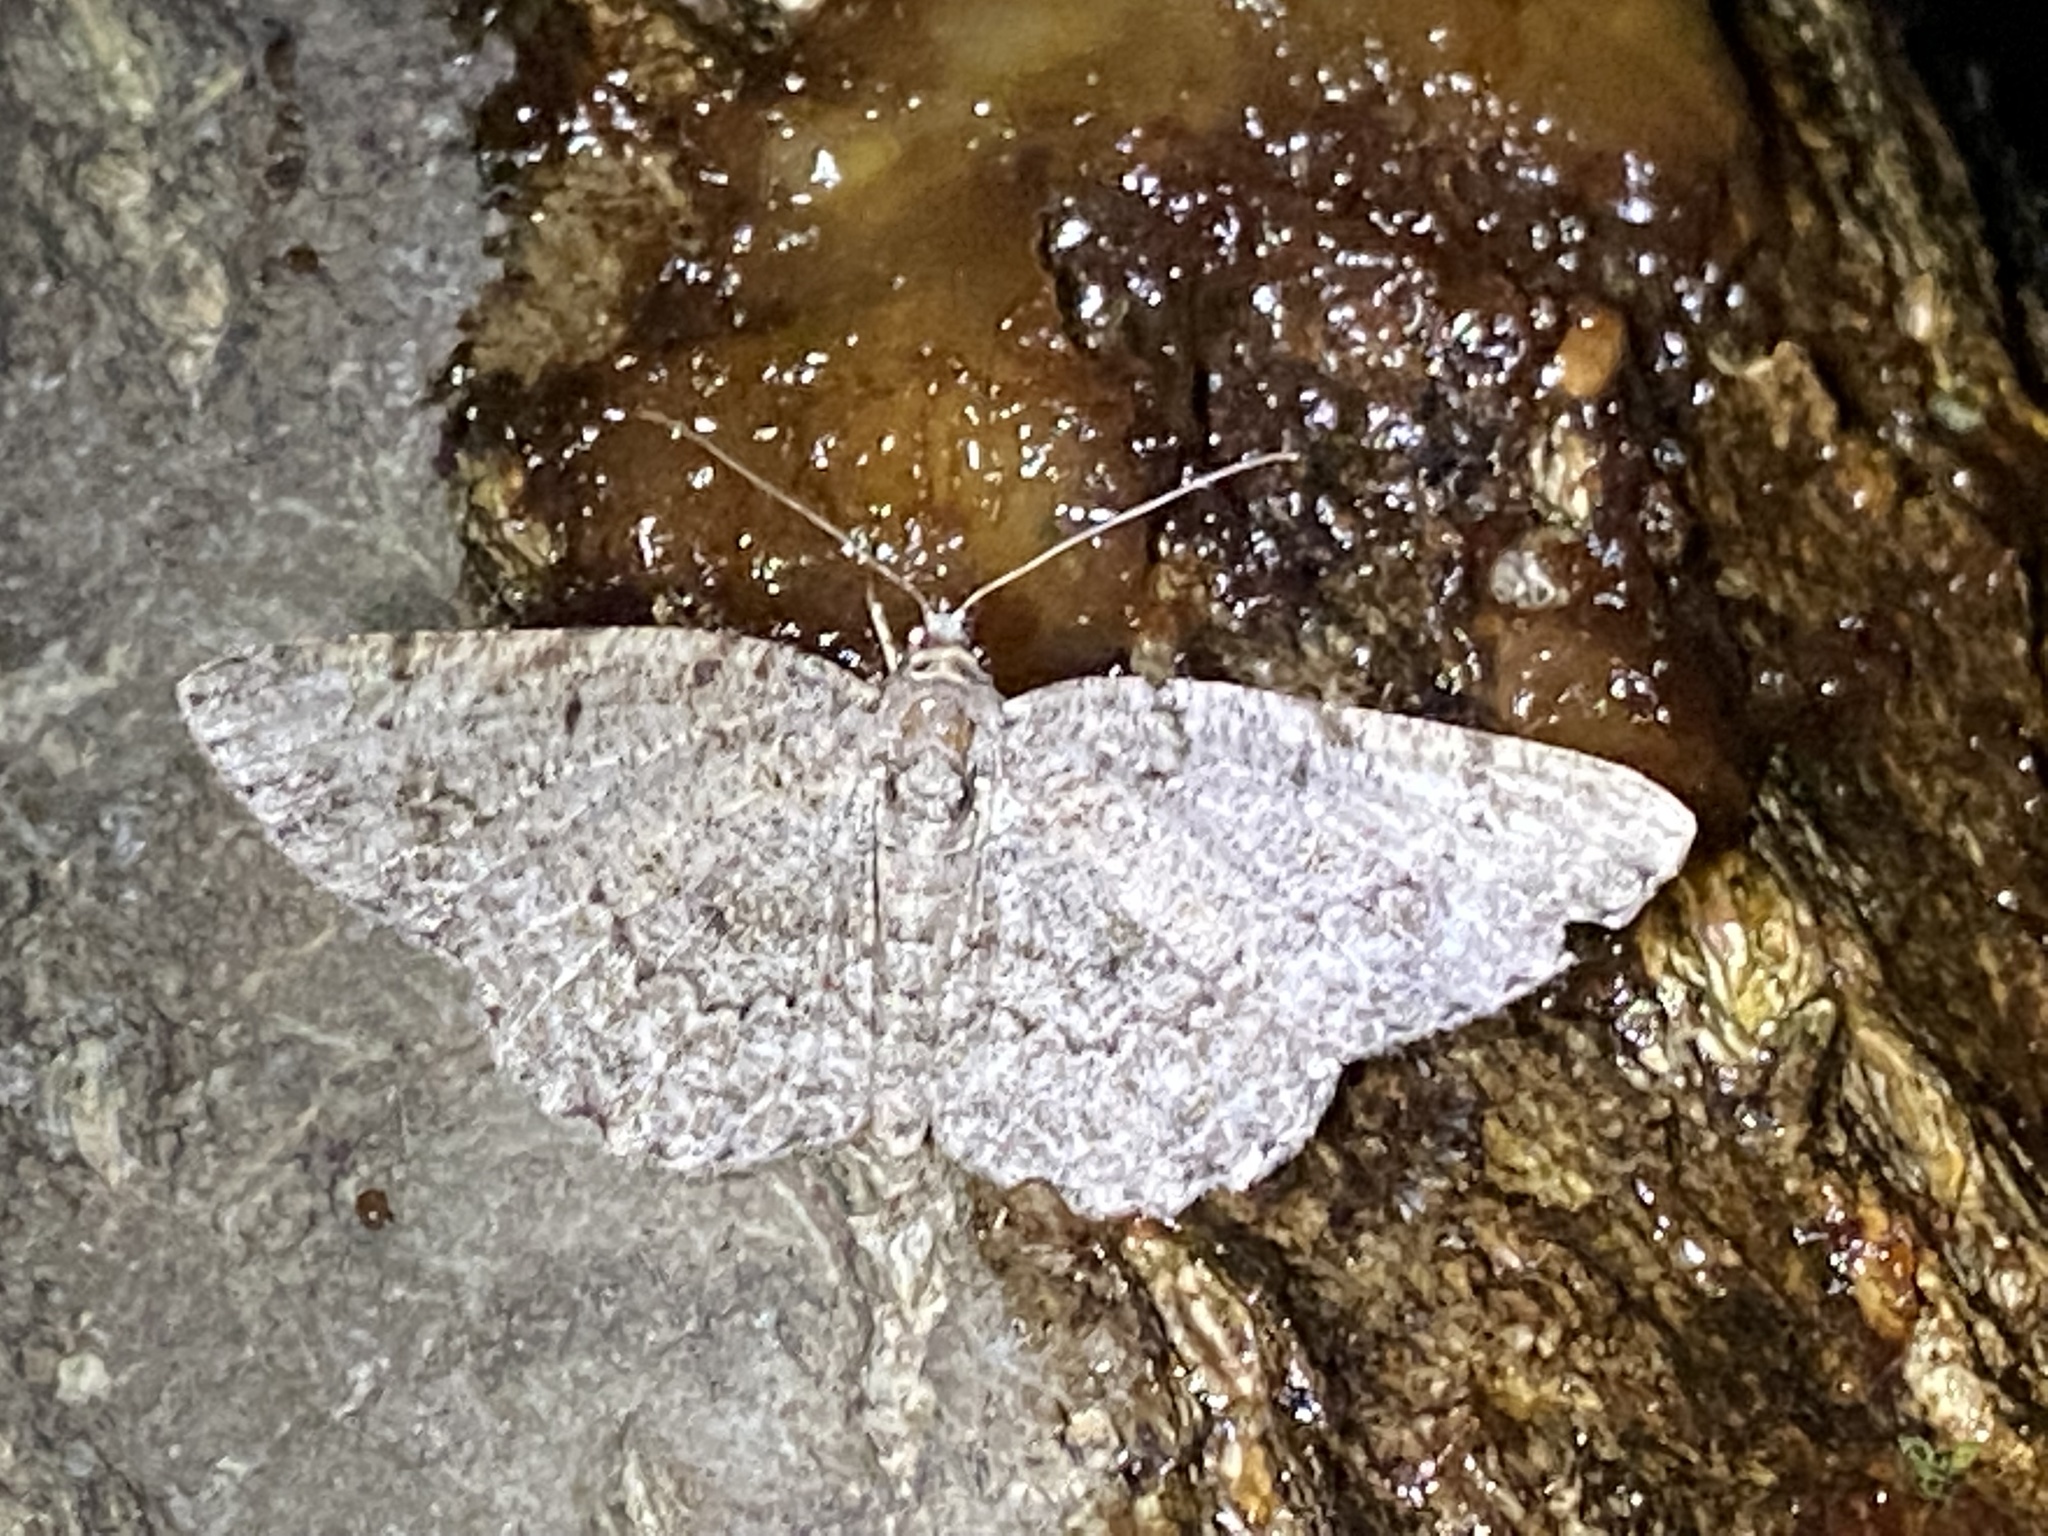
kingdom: Animalia
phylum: Arthropoda
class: Insecta
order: Lepidoptera
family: Geometridae
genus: Protoboarmia
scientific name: Protoboarmia porcelaria
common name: Porcelain gray
